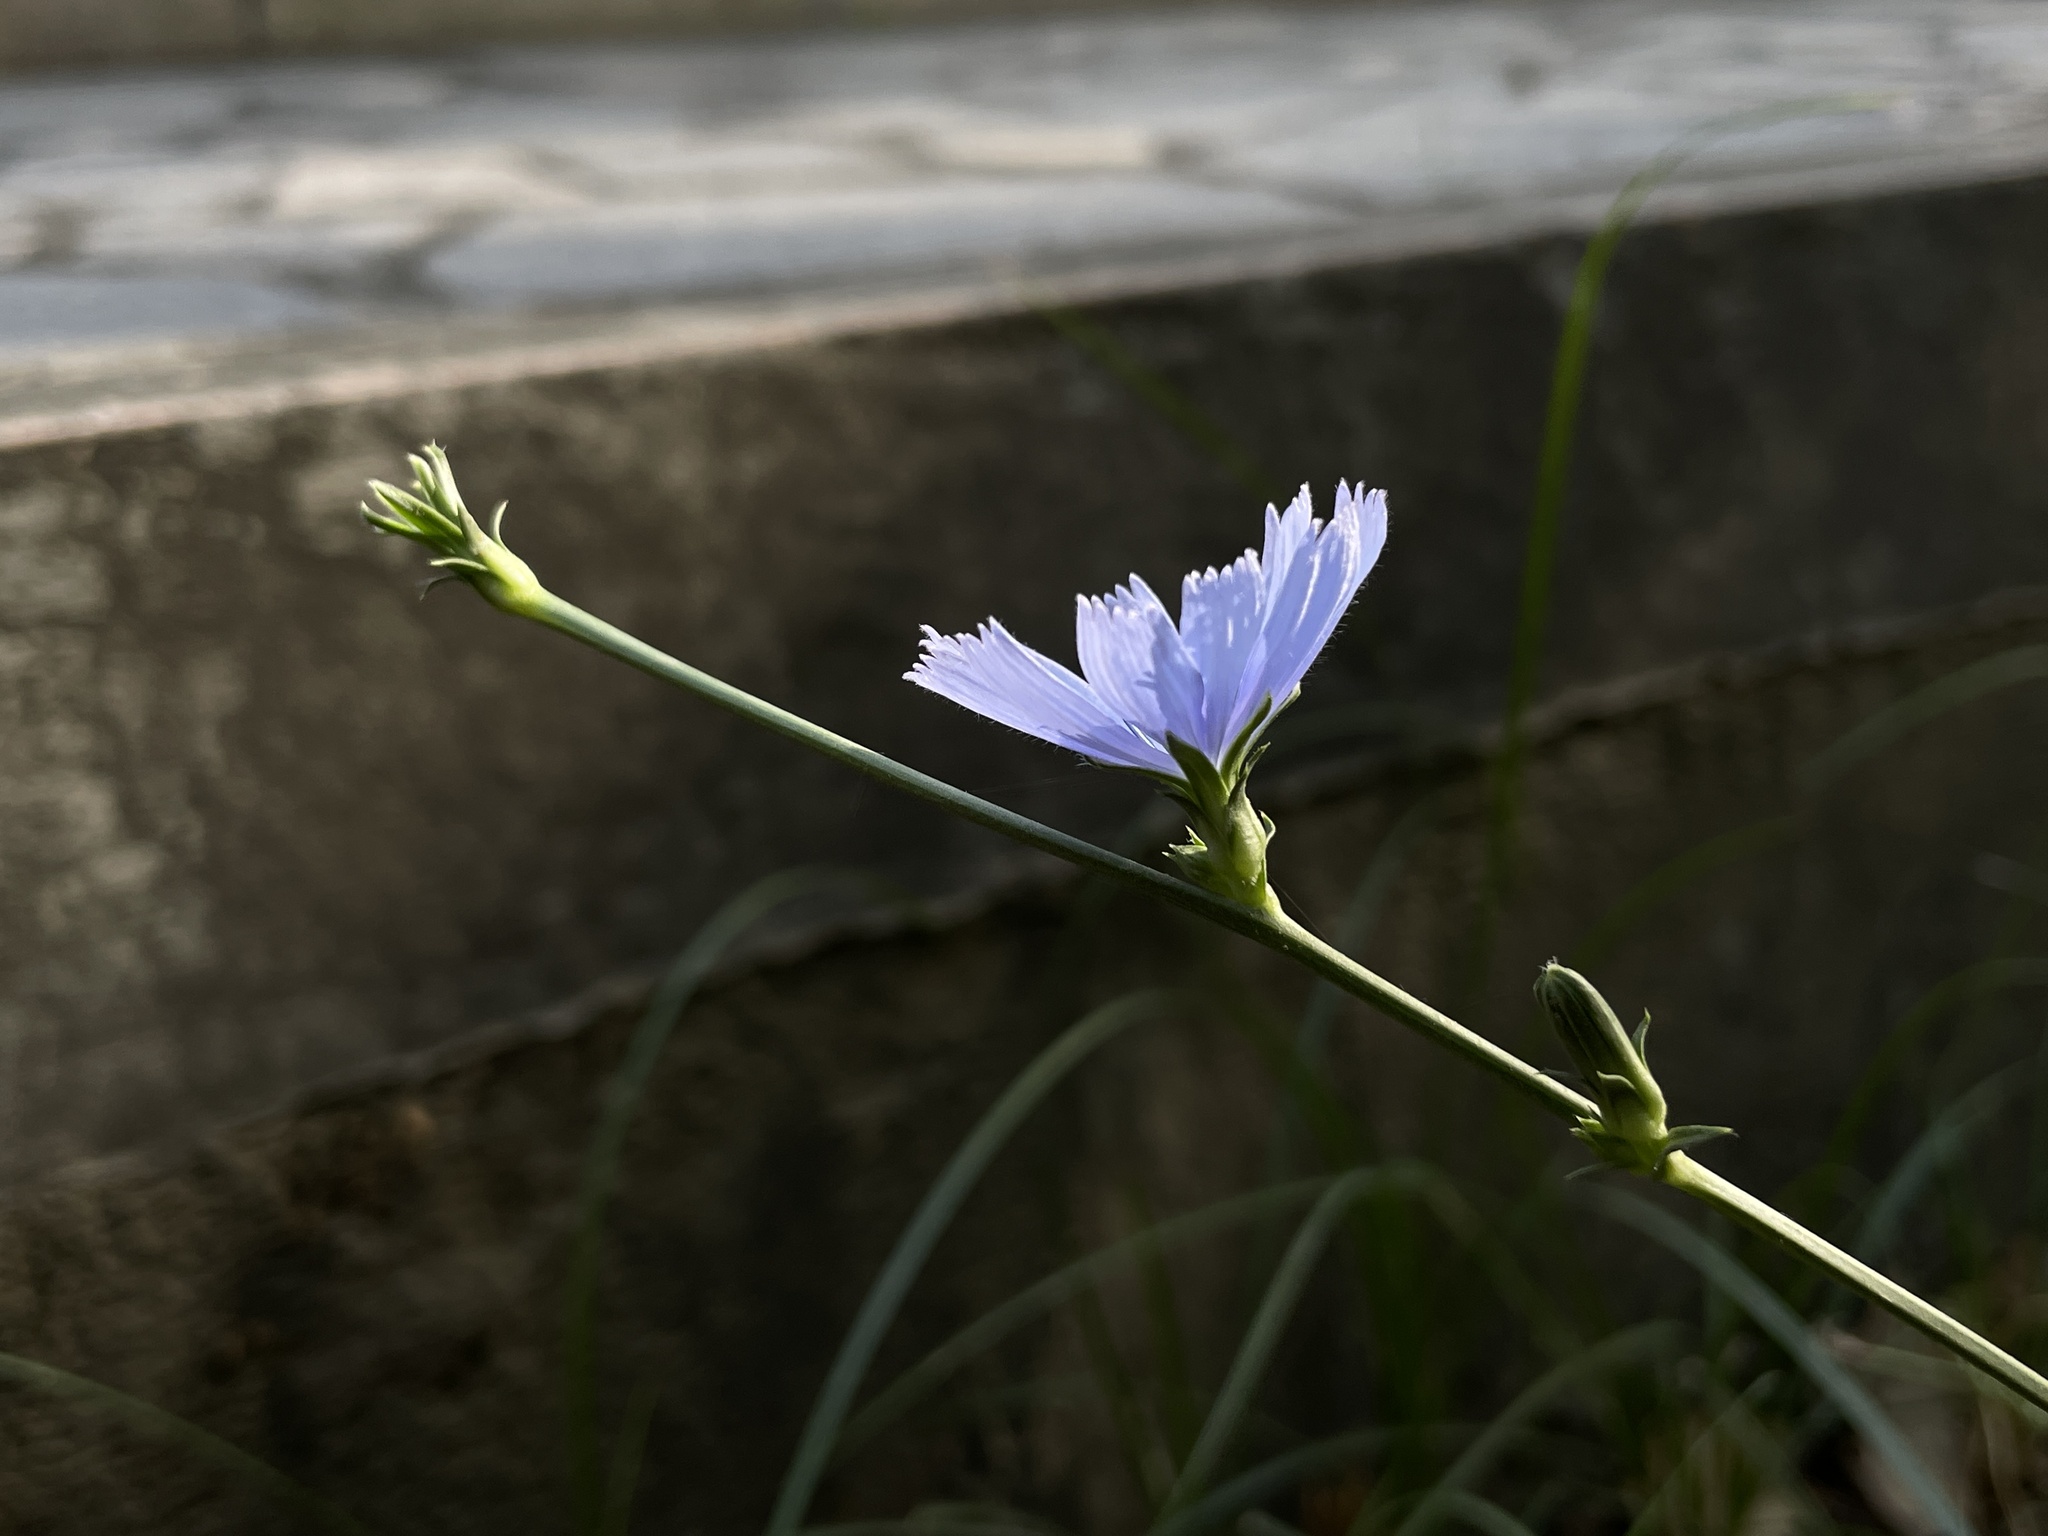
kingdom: Plantae
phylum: Tracheophyta
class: Magnoliopsida
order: Asterales
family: Asteraceae
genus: Cichorium
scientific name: Cichorium intybus
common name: Chicory
